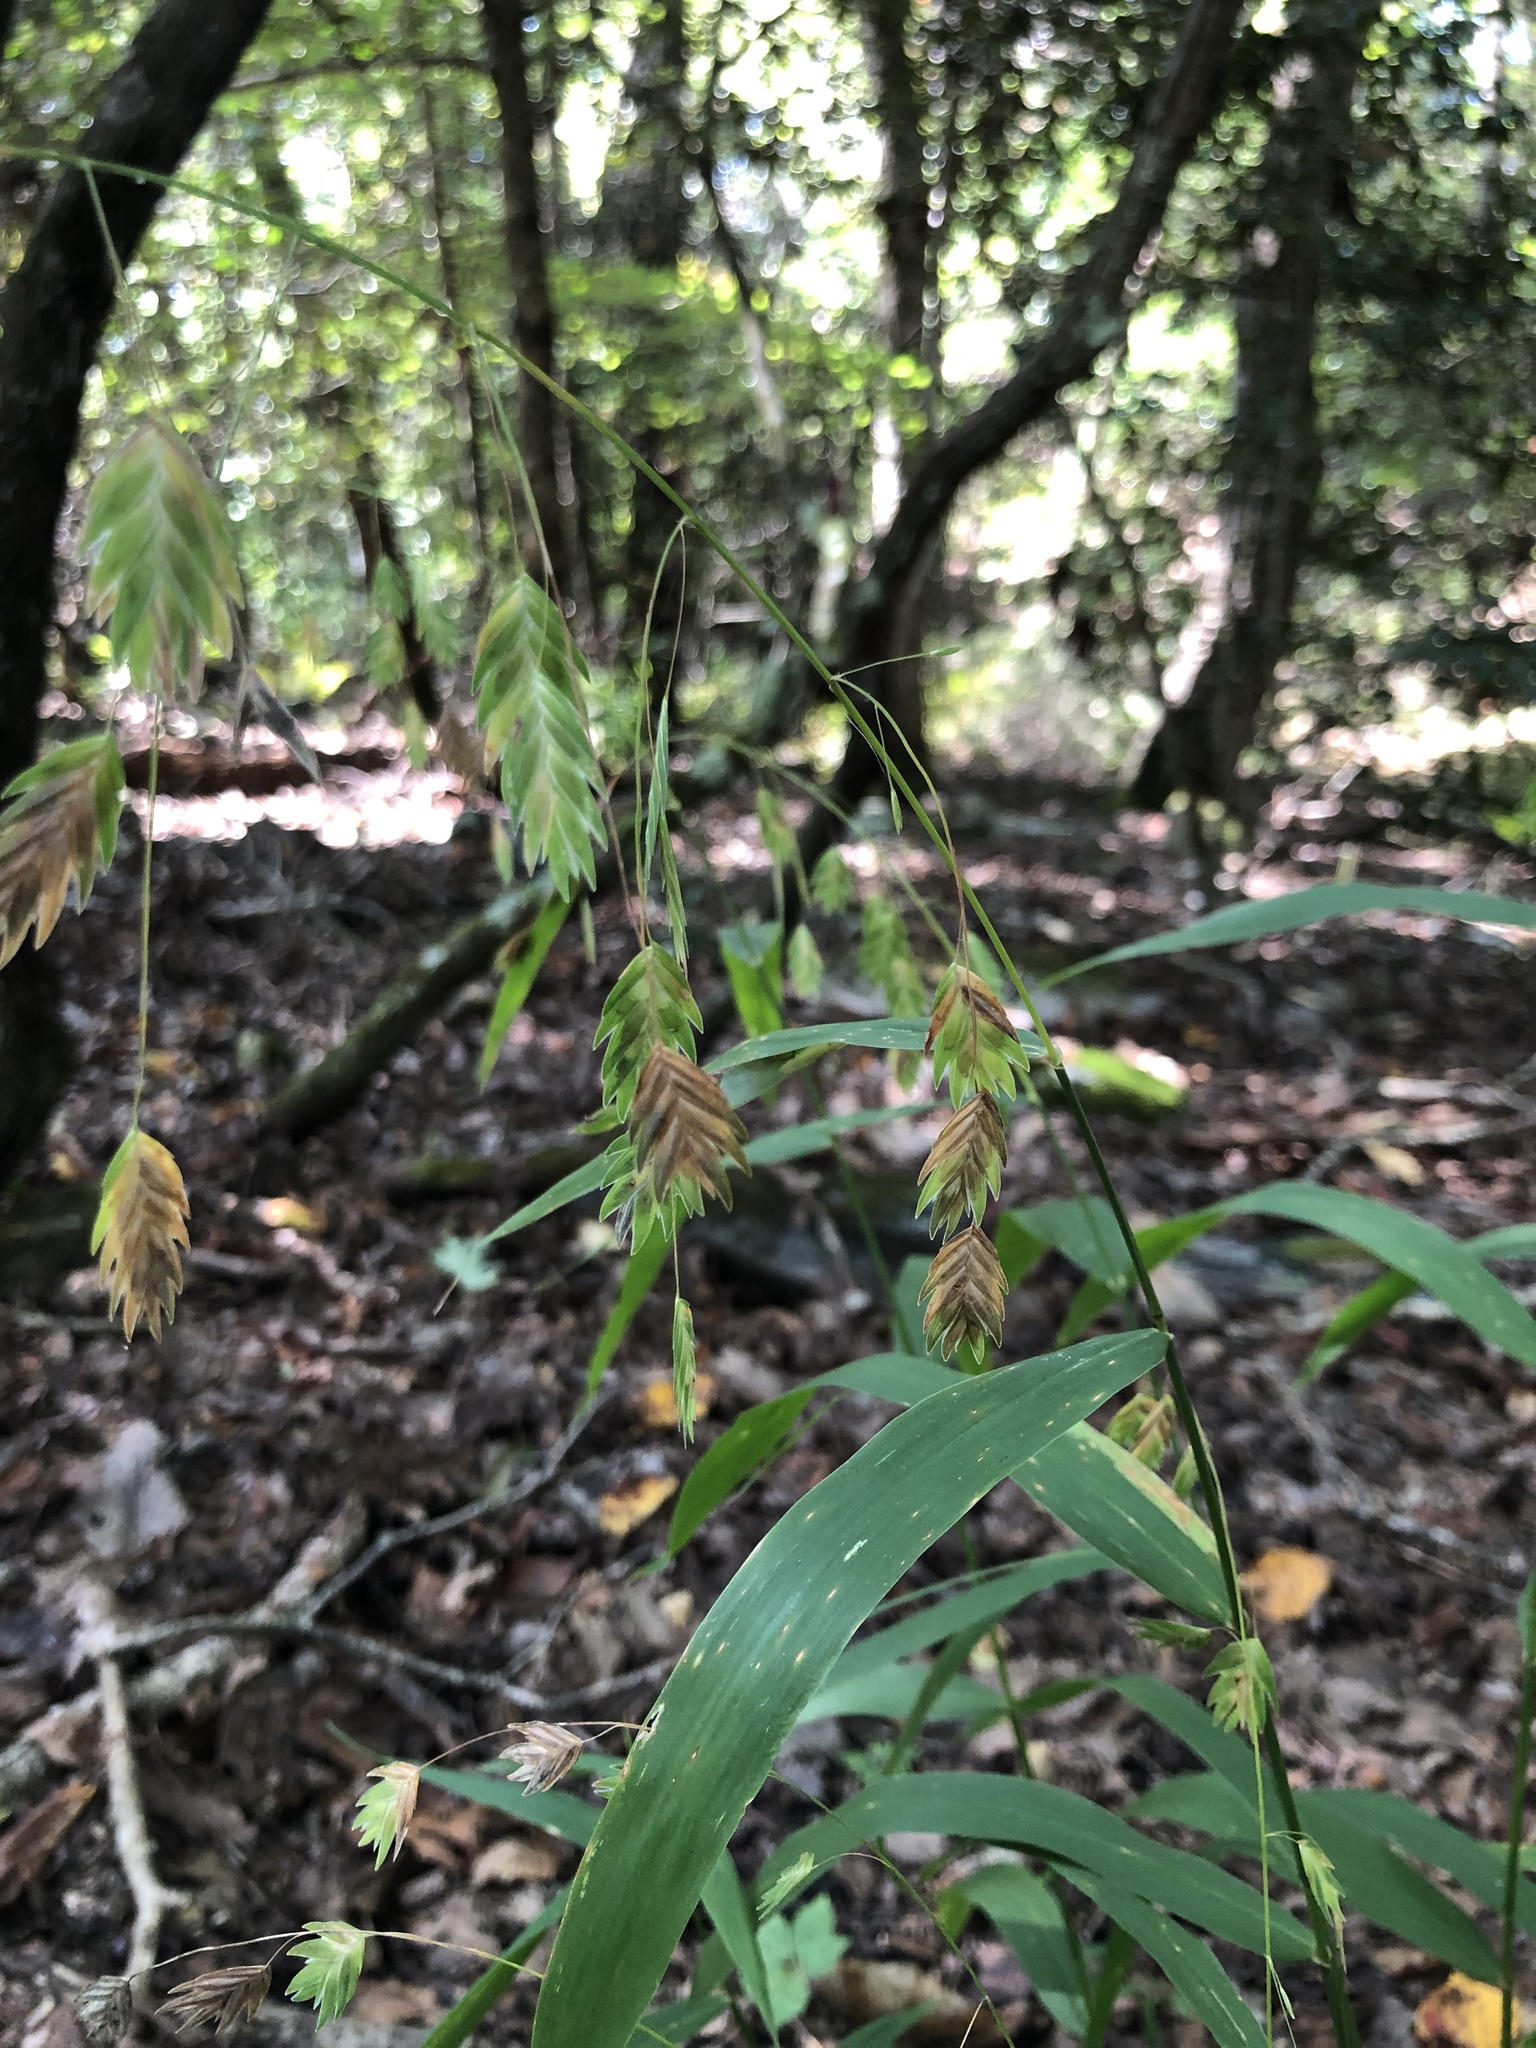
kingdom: Plantae
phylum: Tracheophyta
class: Liliopsida
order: Poales
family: Poaceae
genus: Chasmanthium
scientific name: Chasmanthium latifolium
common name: Broad-leaved chasmanthium
